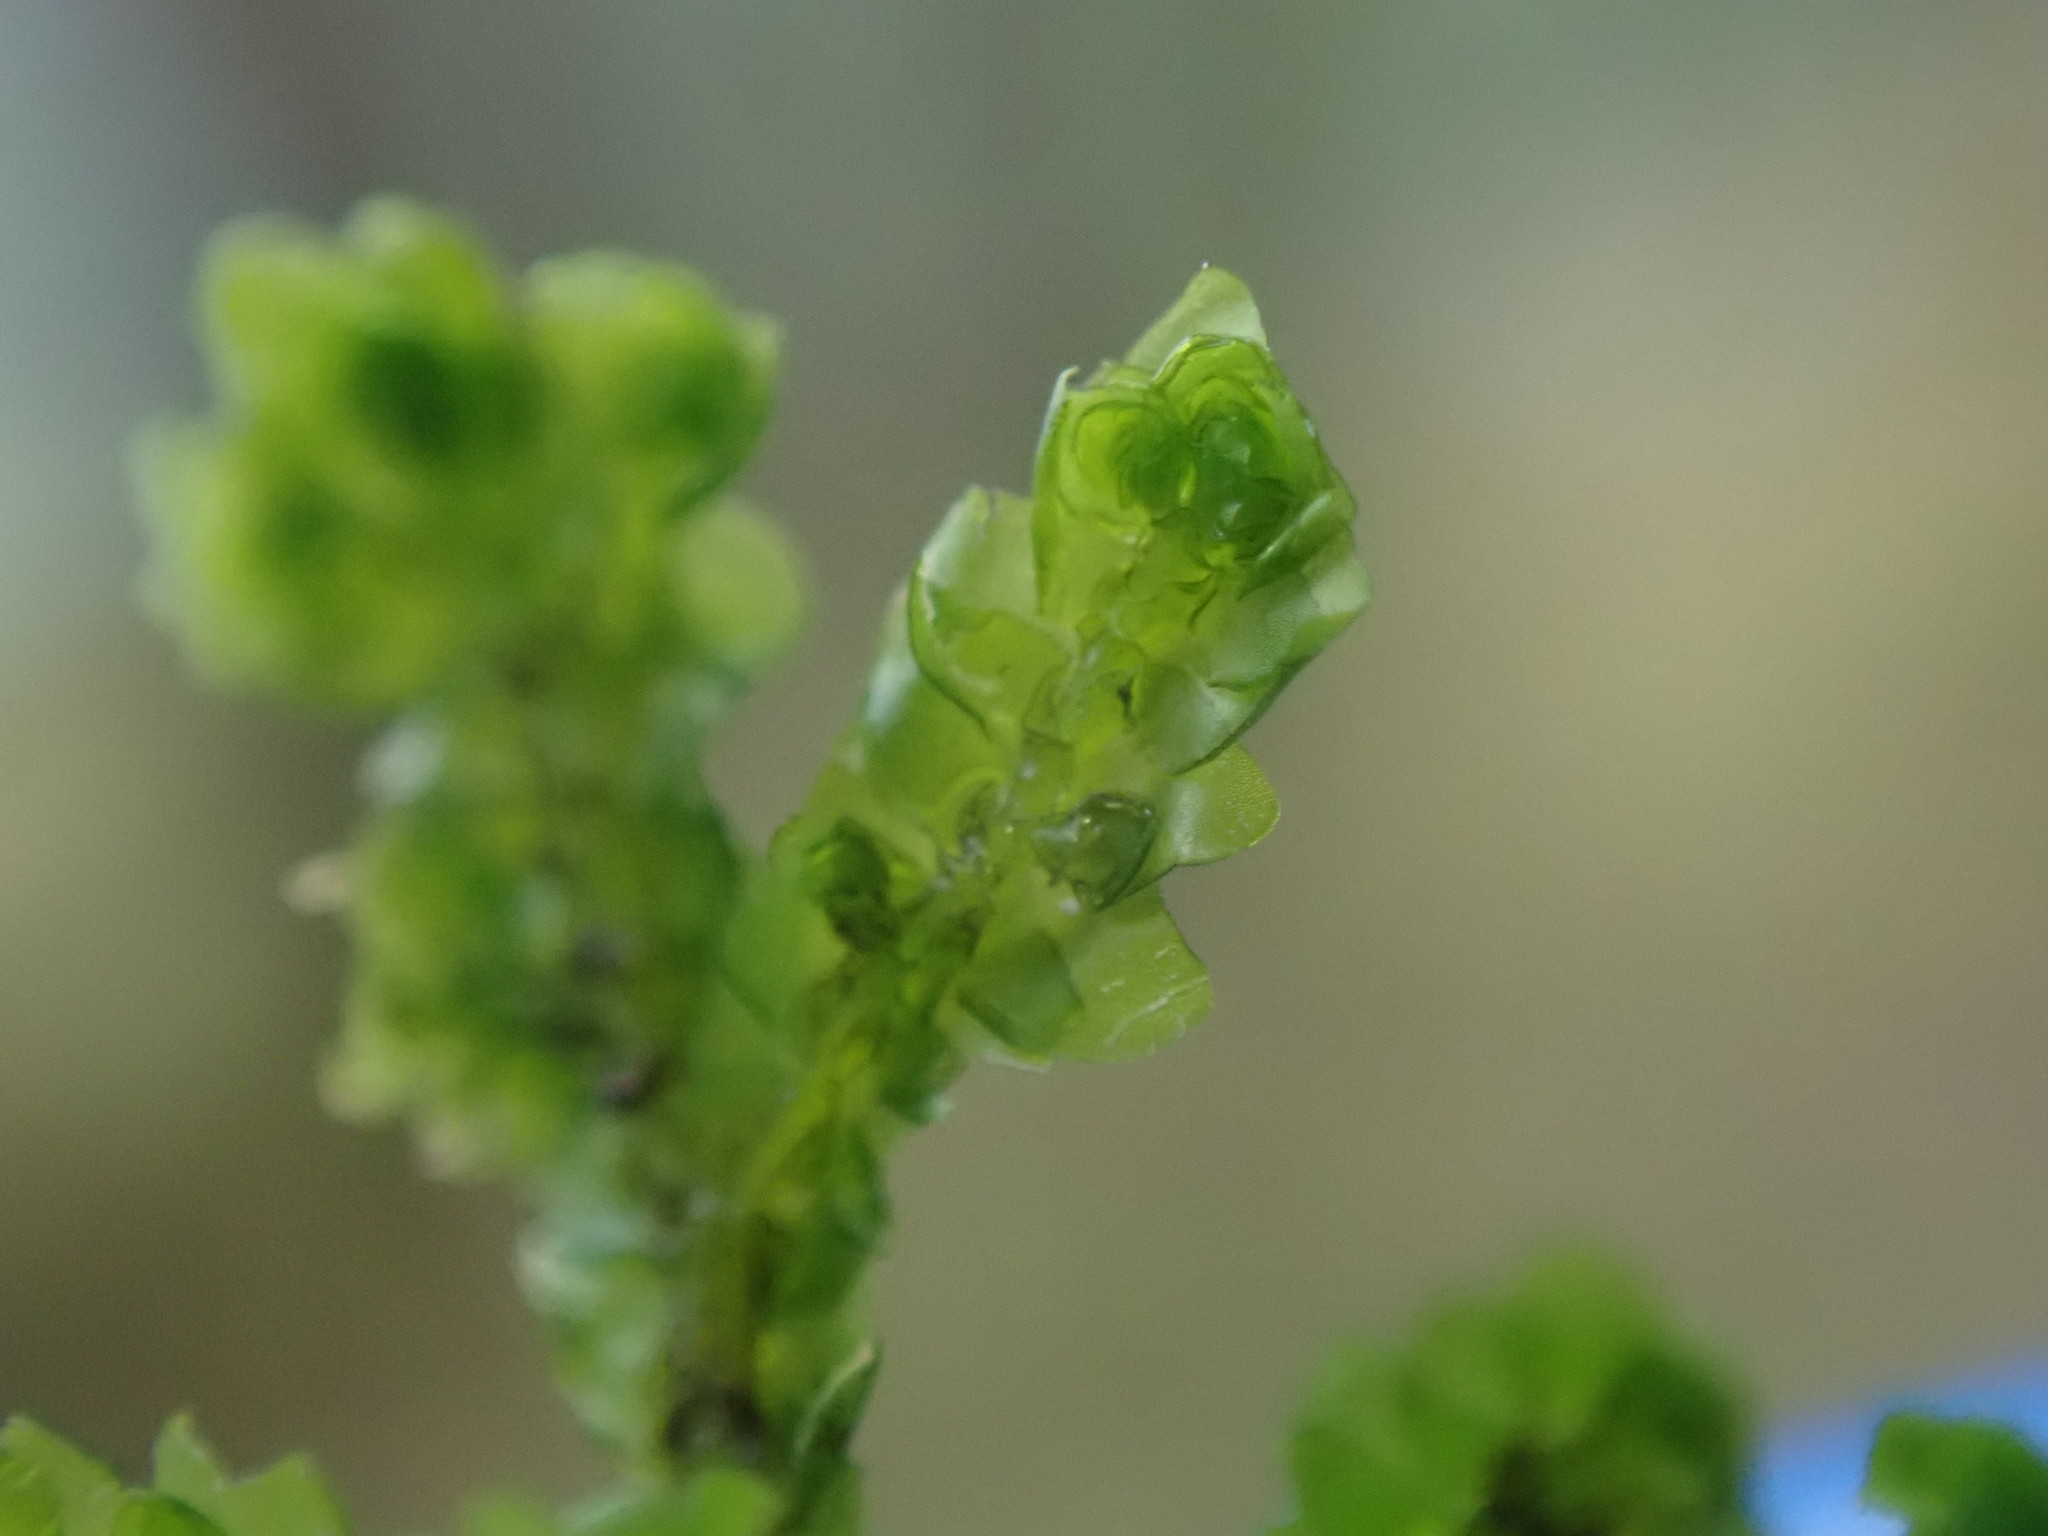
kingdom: Plantae
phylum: Marchantiophyta
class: Jungermanniopsida
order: Porellales
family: Porellaceae
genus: Porella
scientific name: Porella cordaeana
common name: Cliff scalewort
